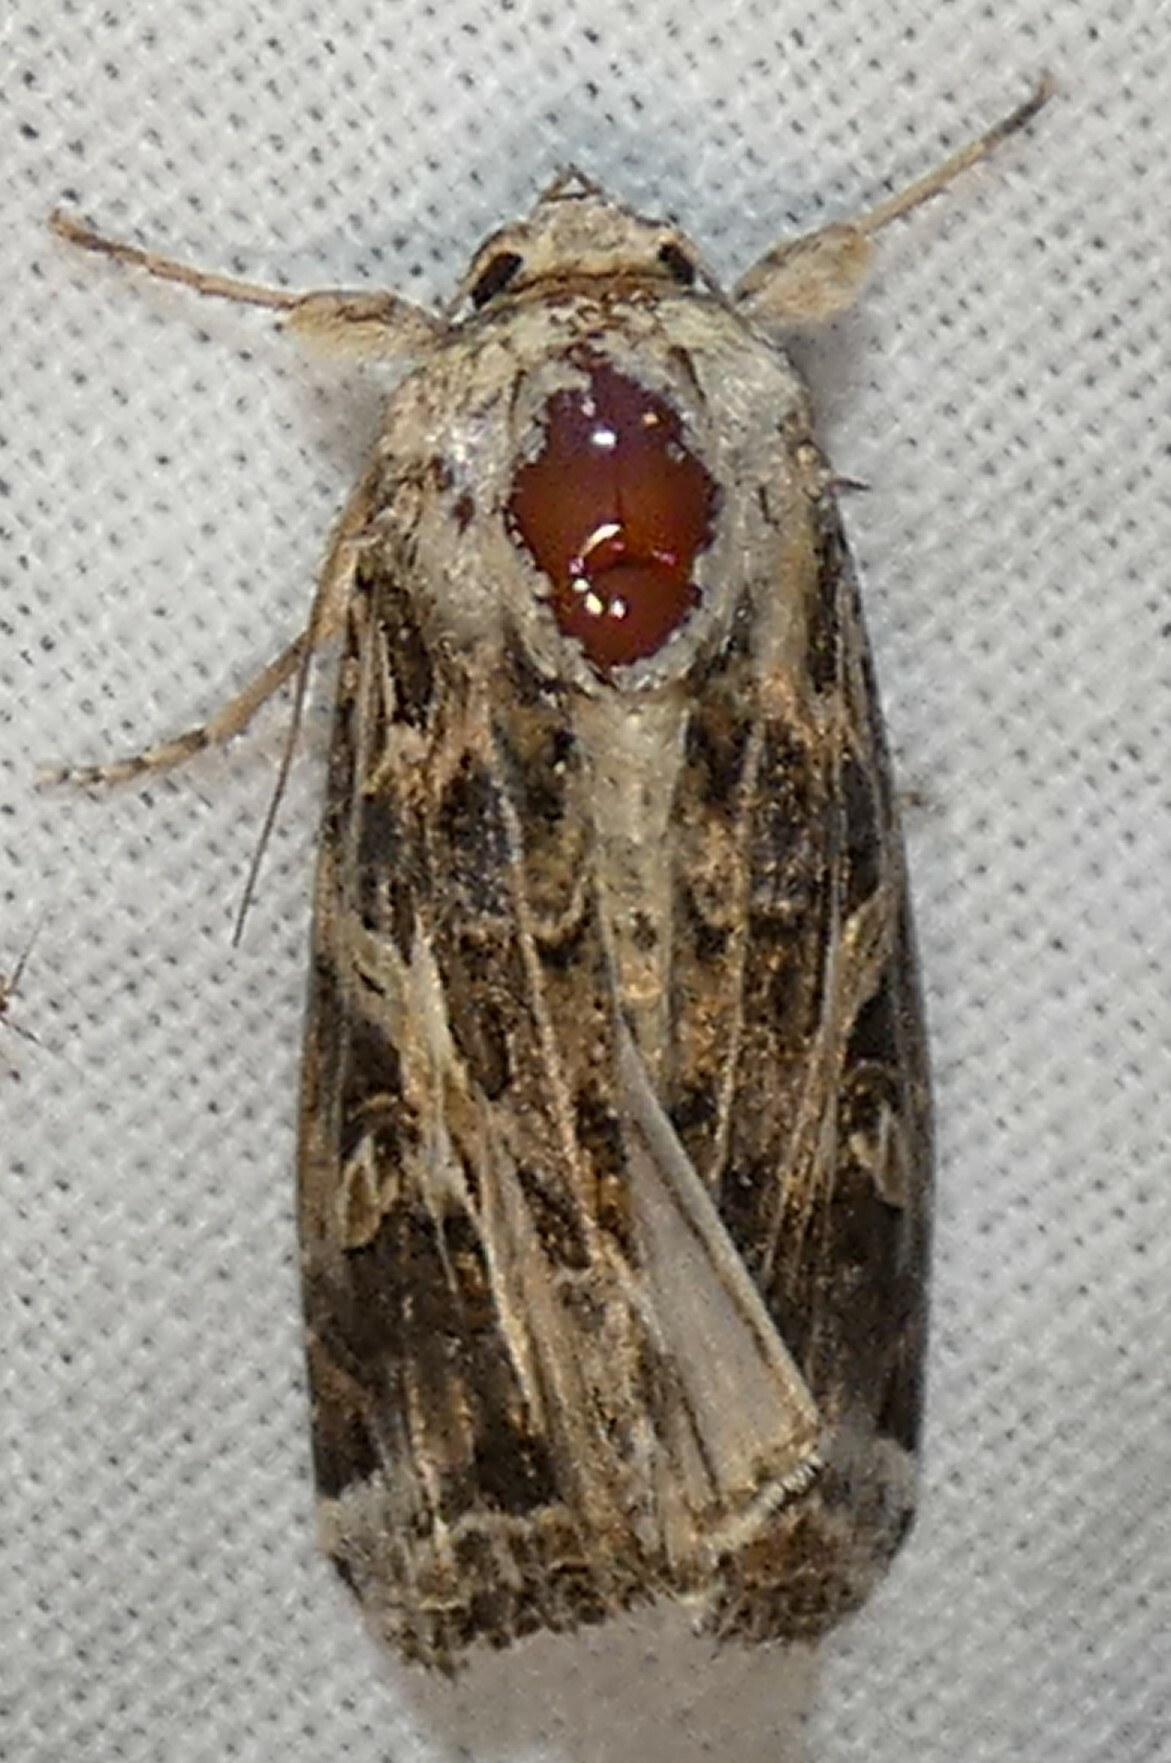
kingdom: Animalia
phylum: Arthropoda
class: Insecta
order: Lepidoptera
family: Noctuidae
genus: Spodoptera
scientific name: Spodoptera ornithogalli
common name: Yellow-striped armyworm
